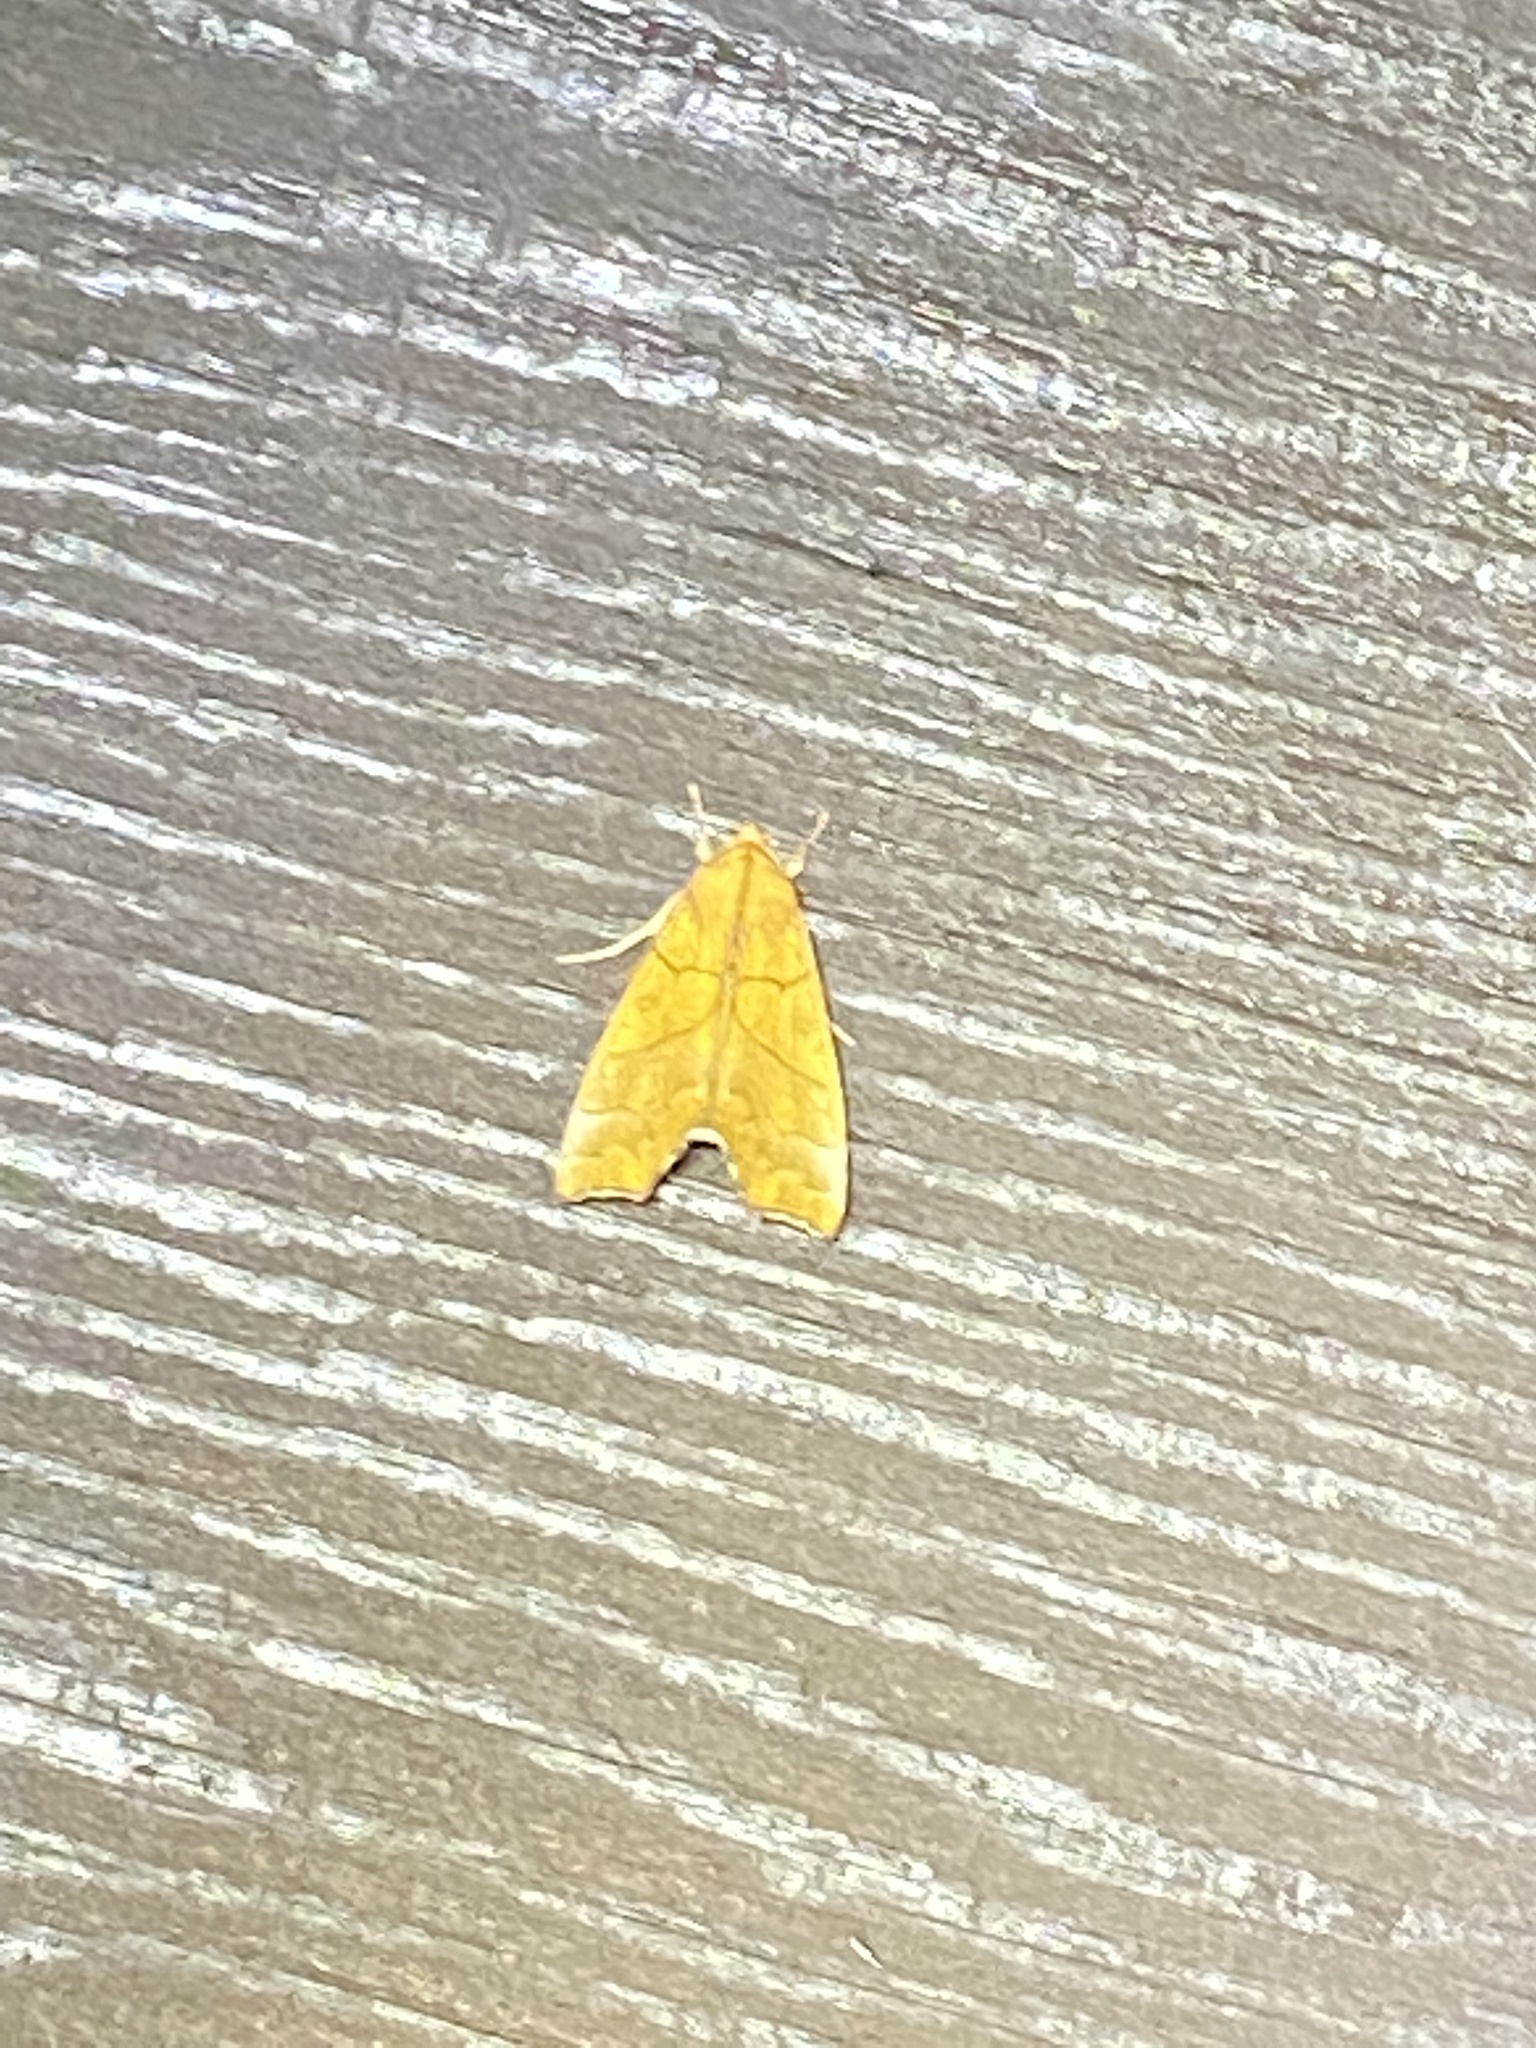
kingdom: Animalia
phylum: Arthropoda
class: Insecta
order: Lepidoptera
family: Erebidae
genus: Anomis
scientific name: Anomis erosa
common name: Yellow scallop moth
